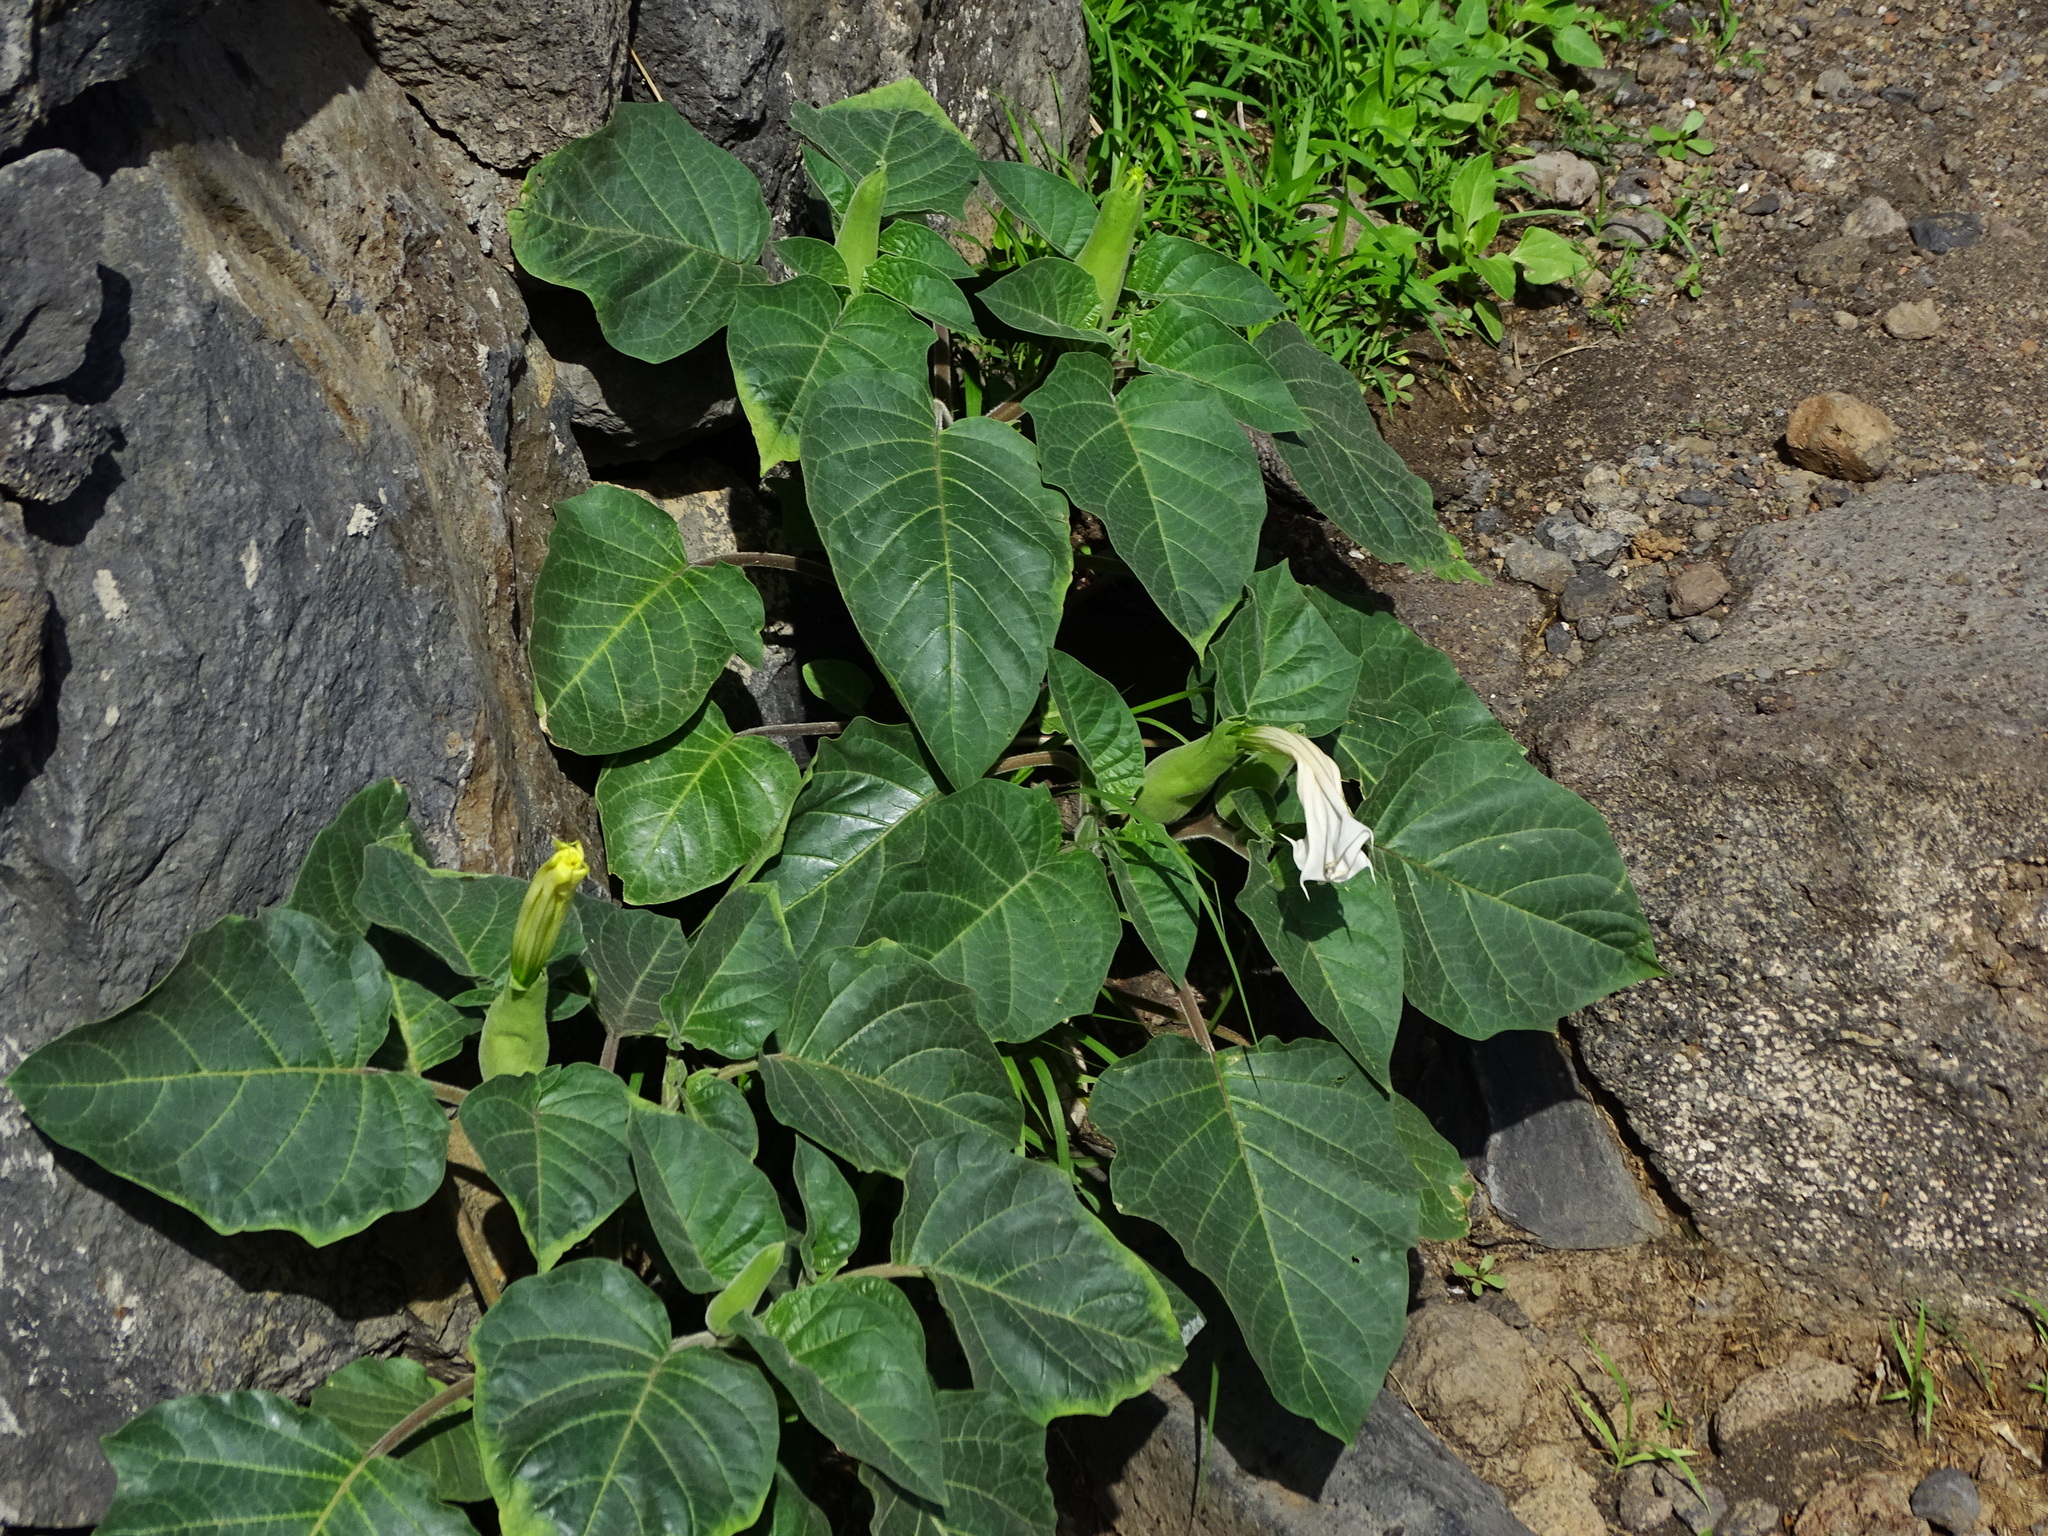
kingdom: Plantae
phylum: Tracheophyta
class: Magnoliopsida
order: Solanales
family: Solanaceae
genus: Datura
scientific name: Datura innoxia
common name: Downy thorn-apple
